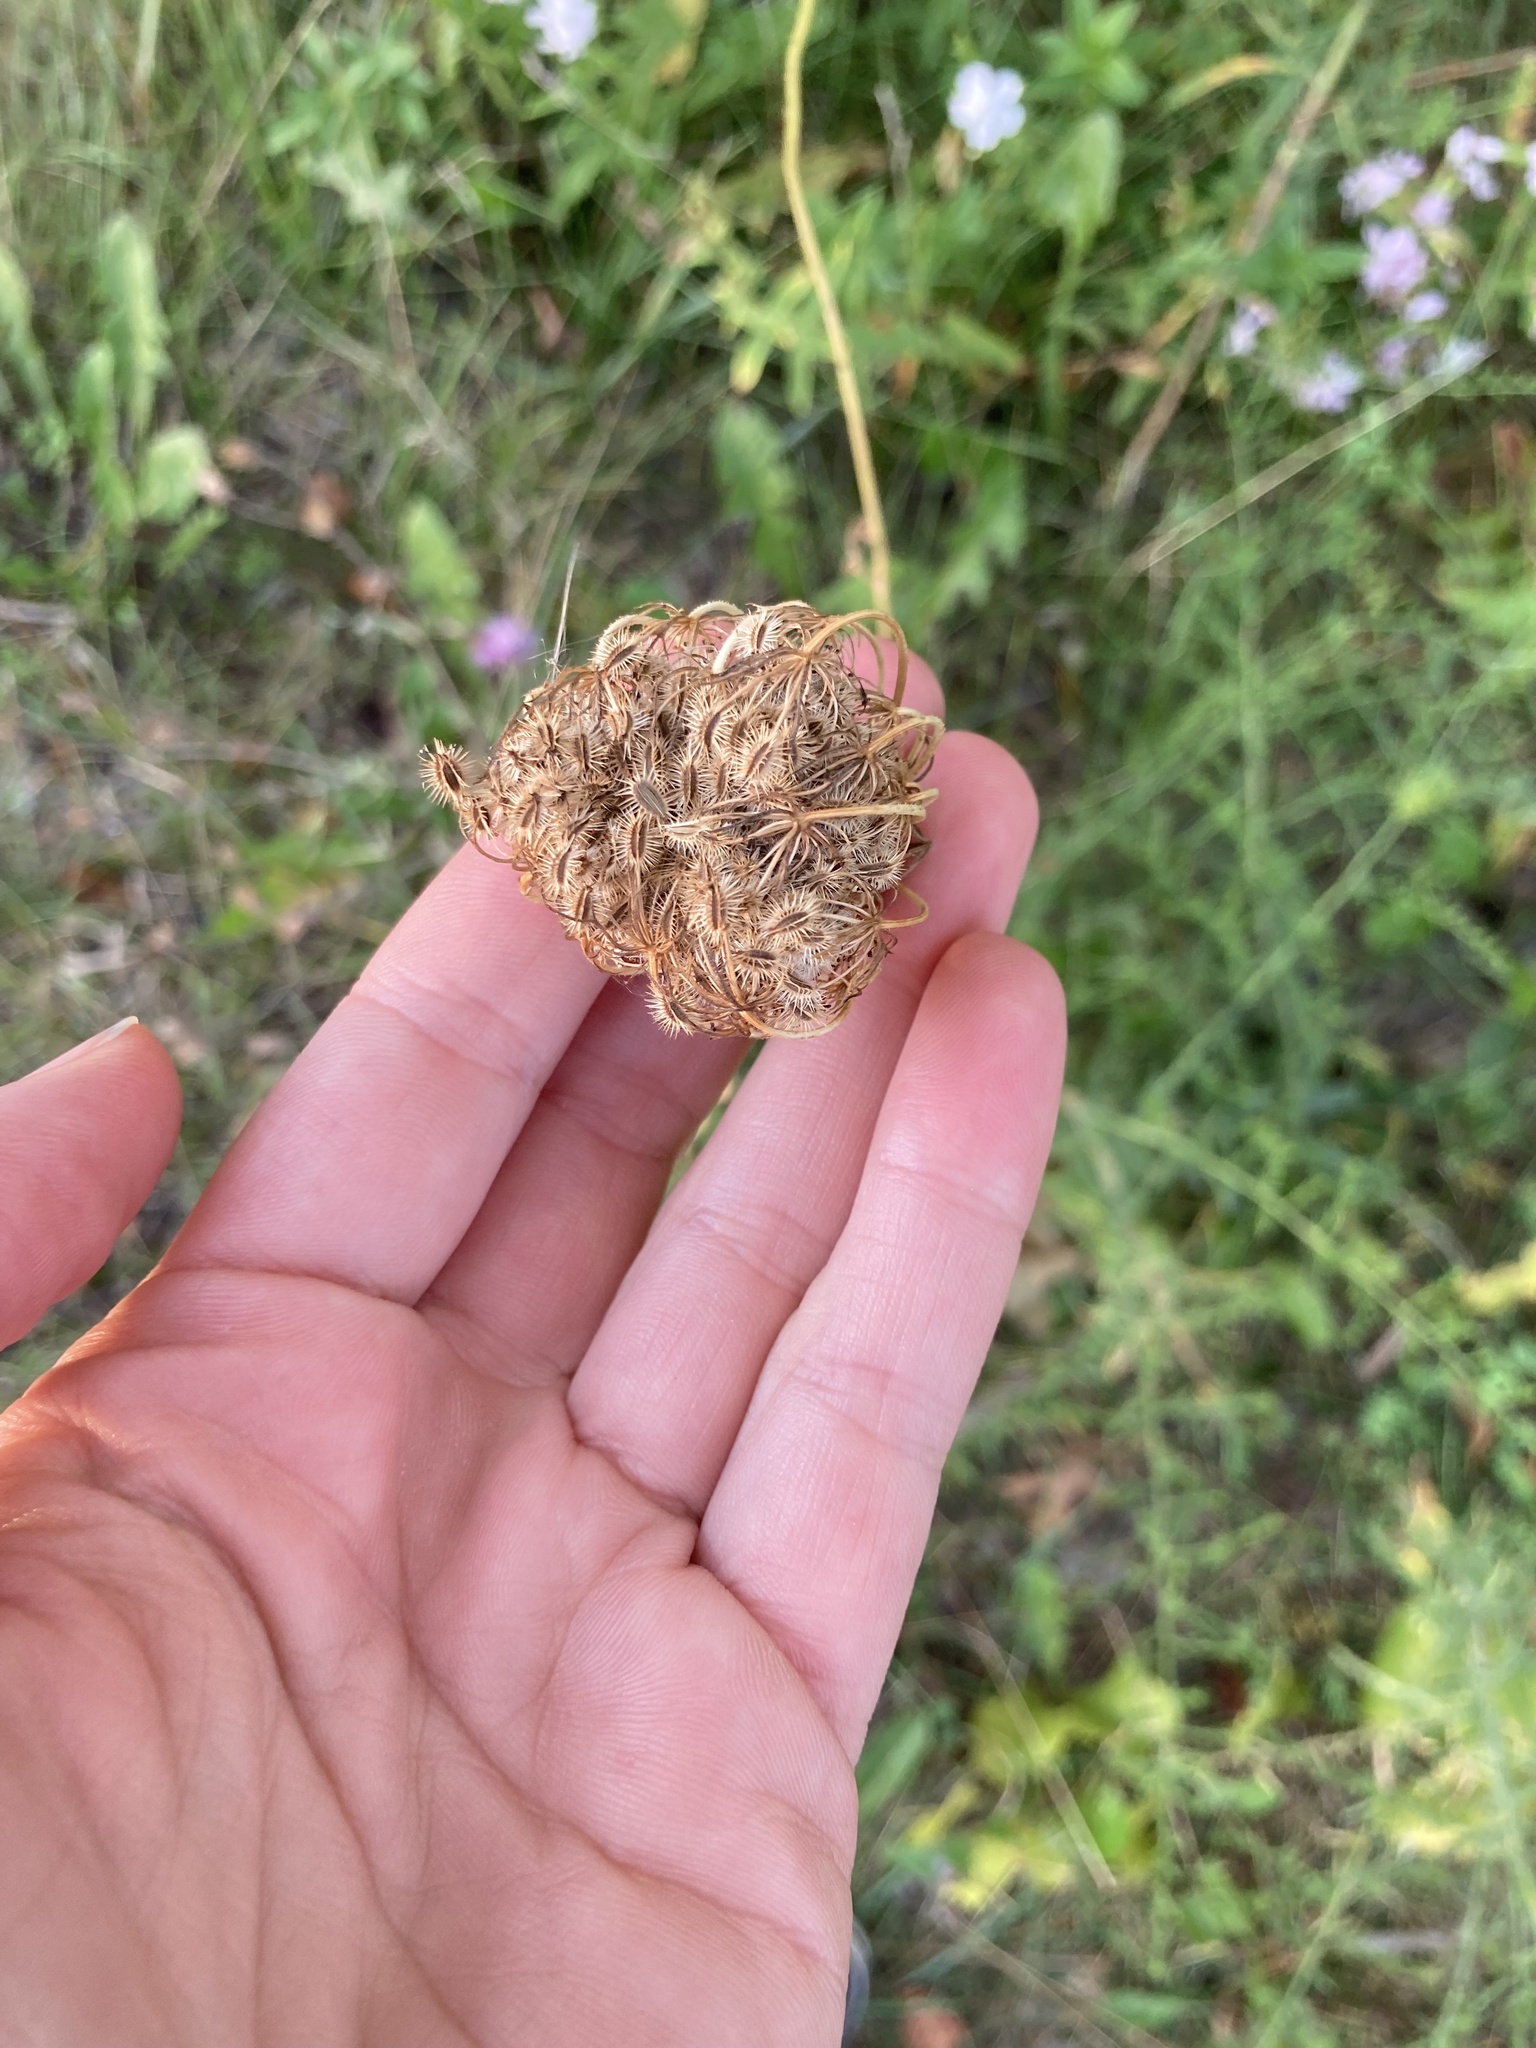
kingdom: Plantae
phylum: Tracheophyta
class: Magnoliopsida
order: Apiales
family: Apiaceae
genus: Daucus
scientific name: Daucus carota
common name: Wild carrot
